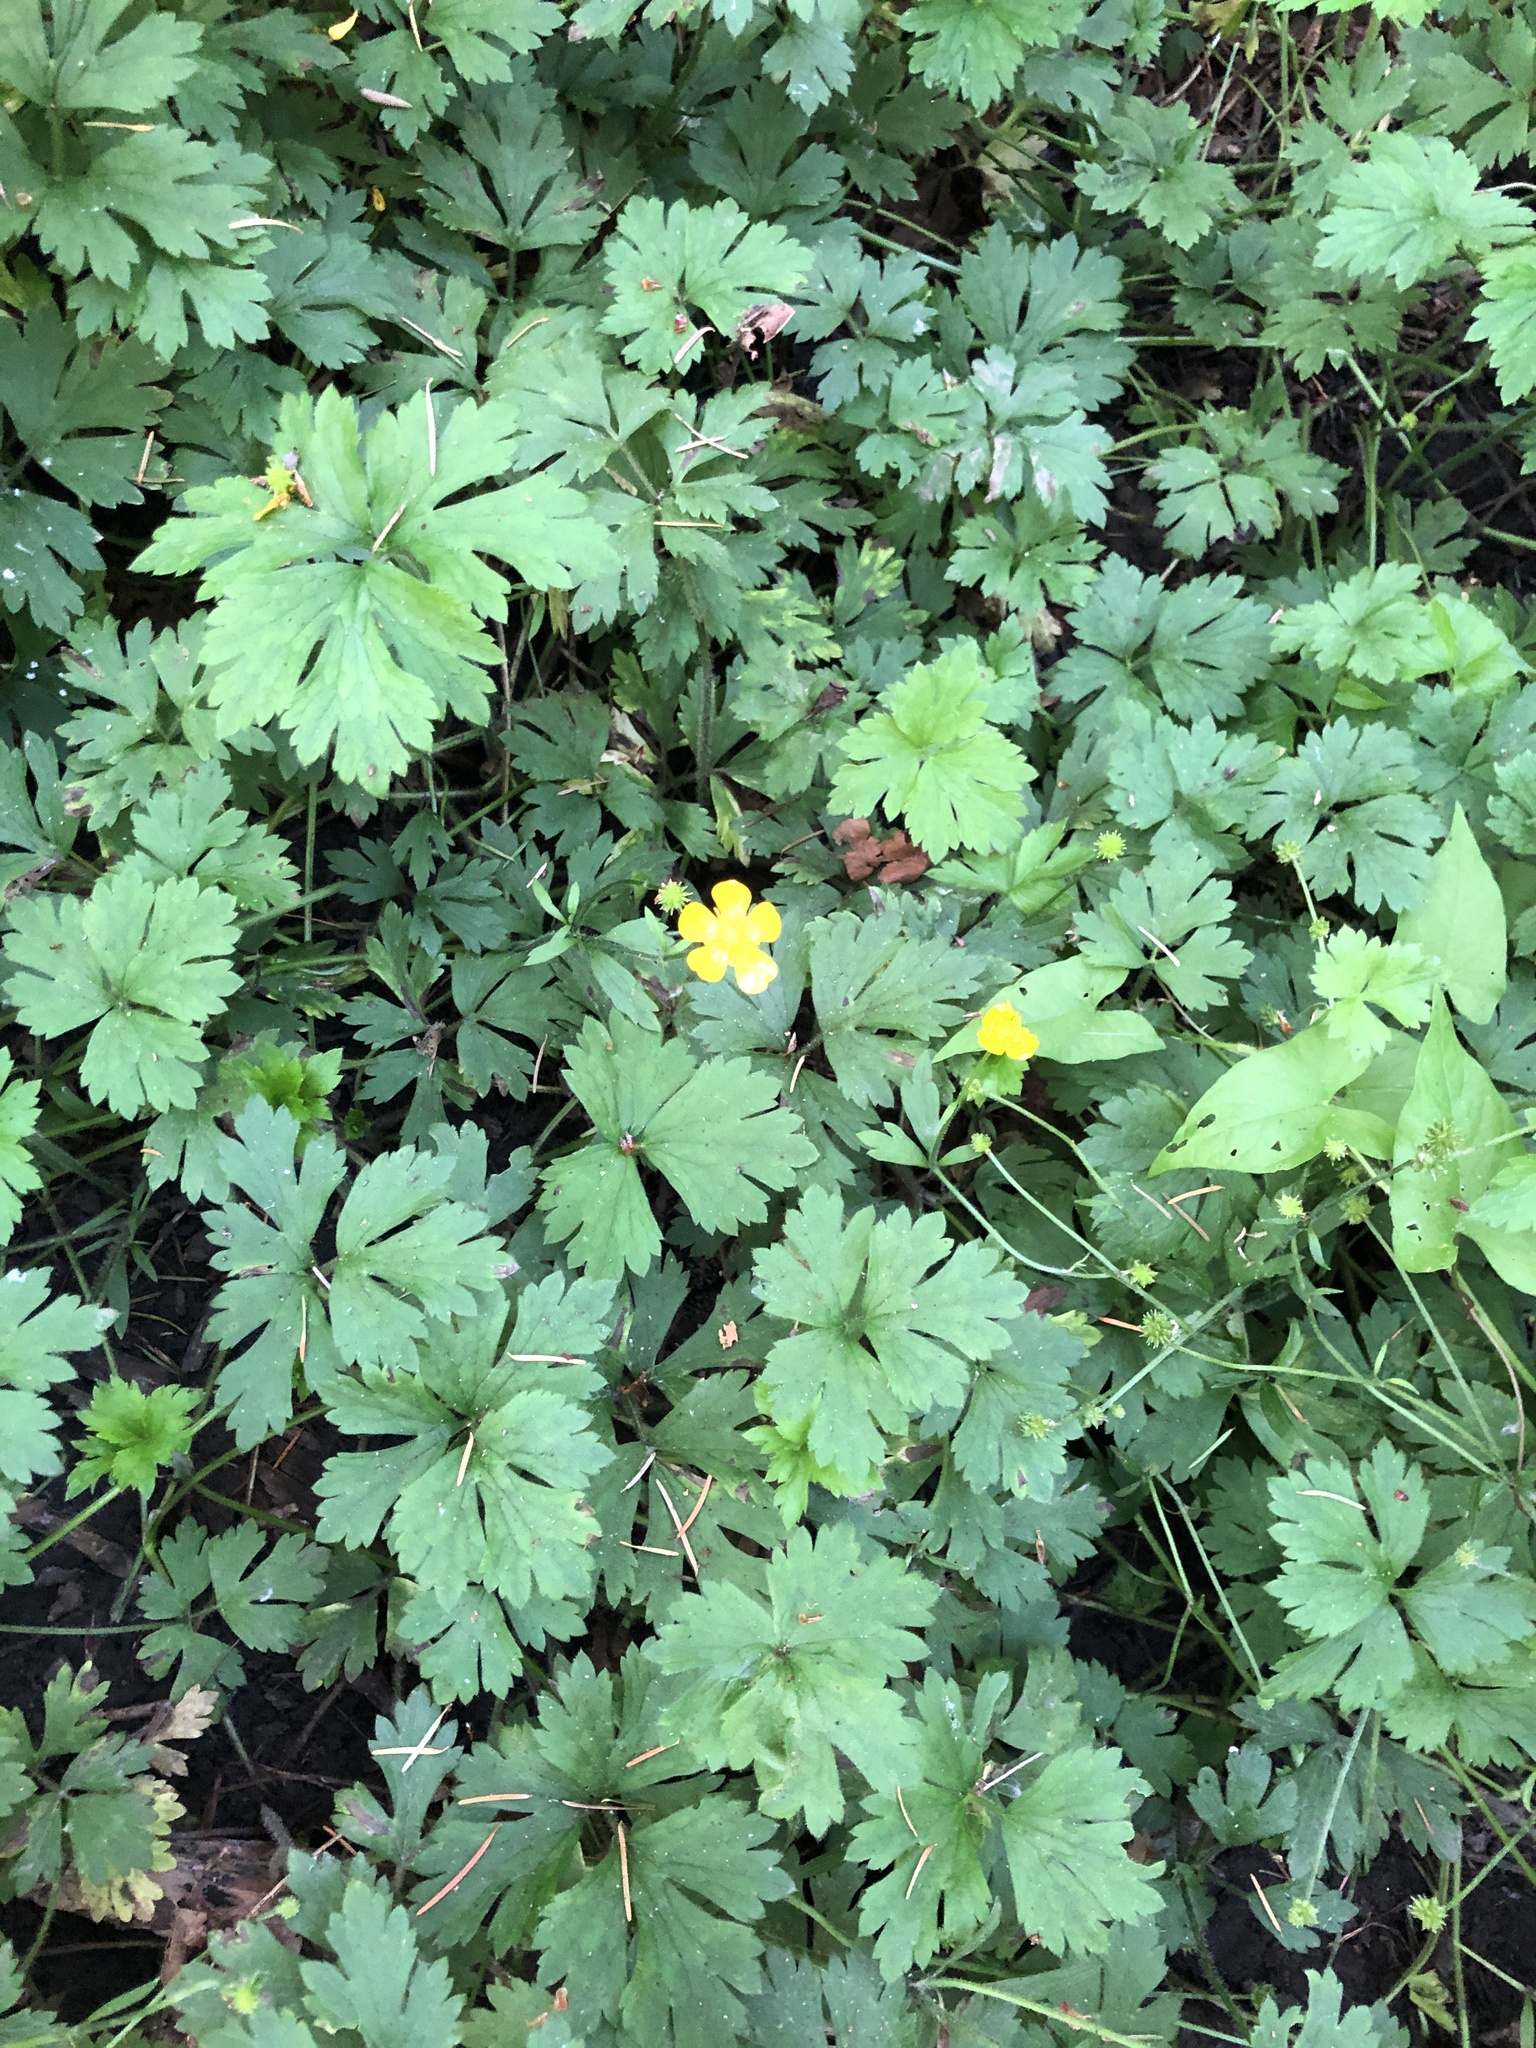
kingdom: Plantae
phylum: Tracheophyta
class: Magnoliopsida
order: Ranunculales
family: Ranunculaceae
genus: Ranunculus
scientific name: Ranunculus repens
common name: Creeping buttercup
